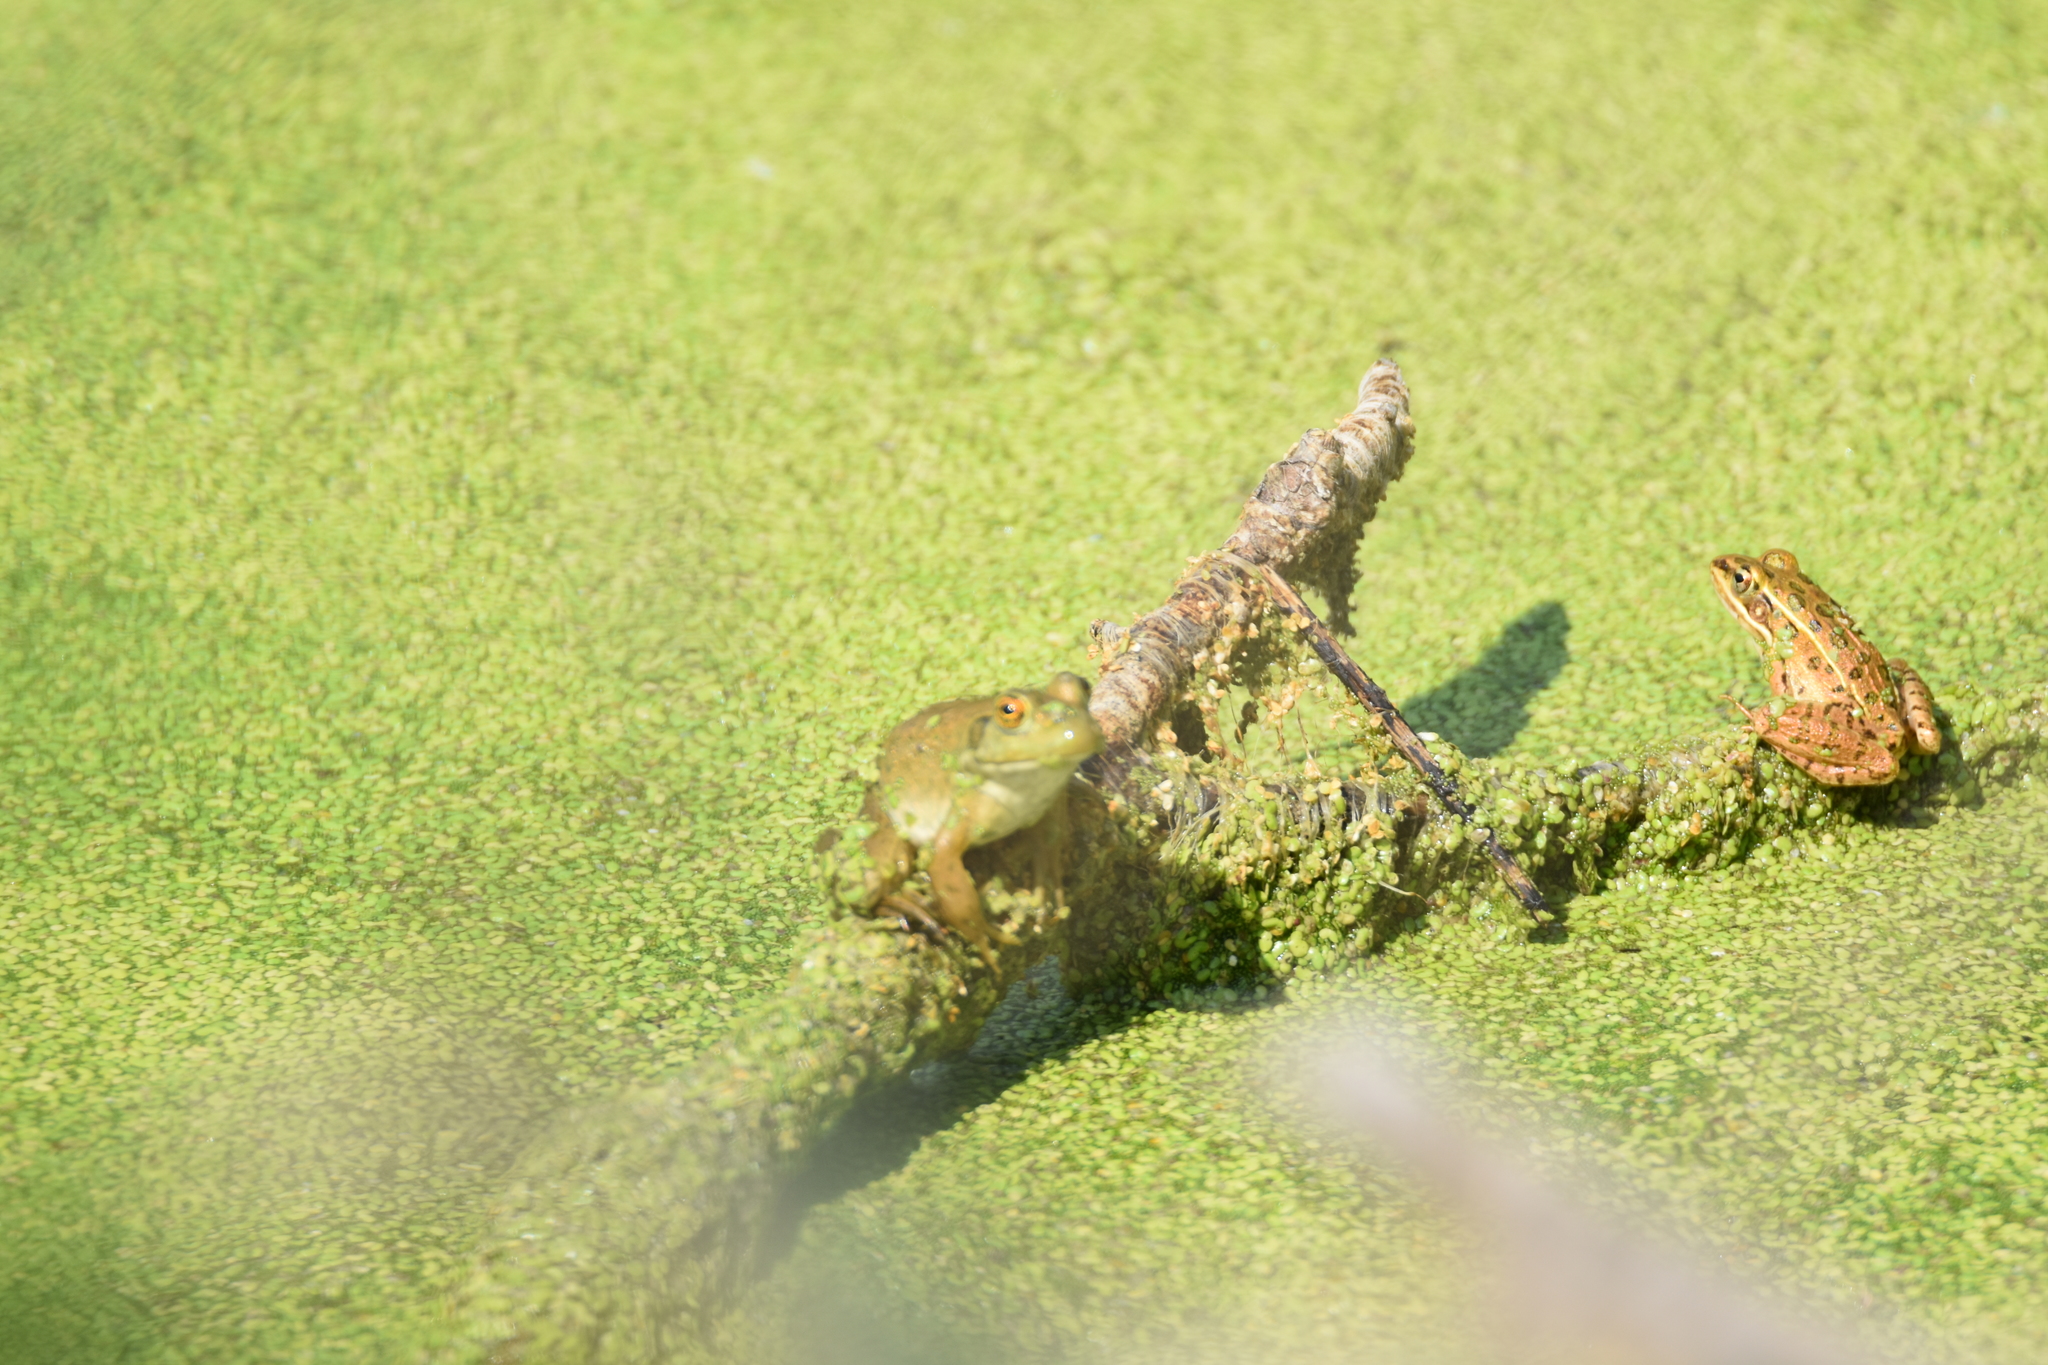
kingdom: Animalia
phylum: Chordata
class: Amphibia
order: Anura
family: Ranidae
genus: Lithobates
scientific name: Lithobates catesbeianus
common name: American bullfrog
